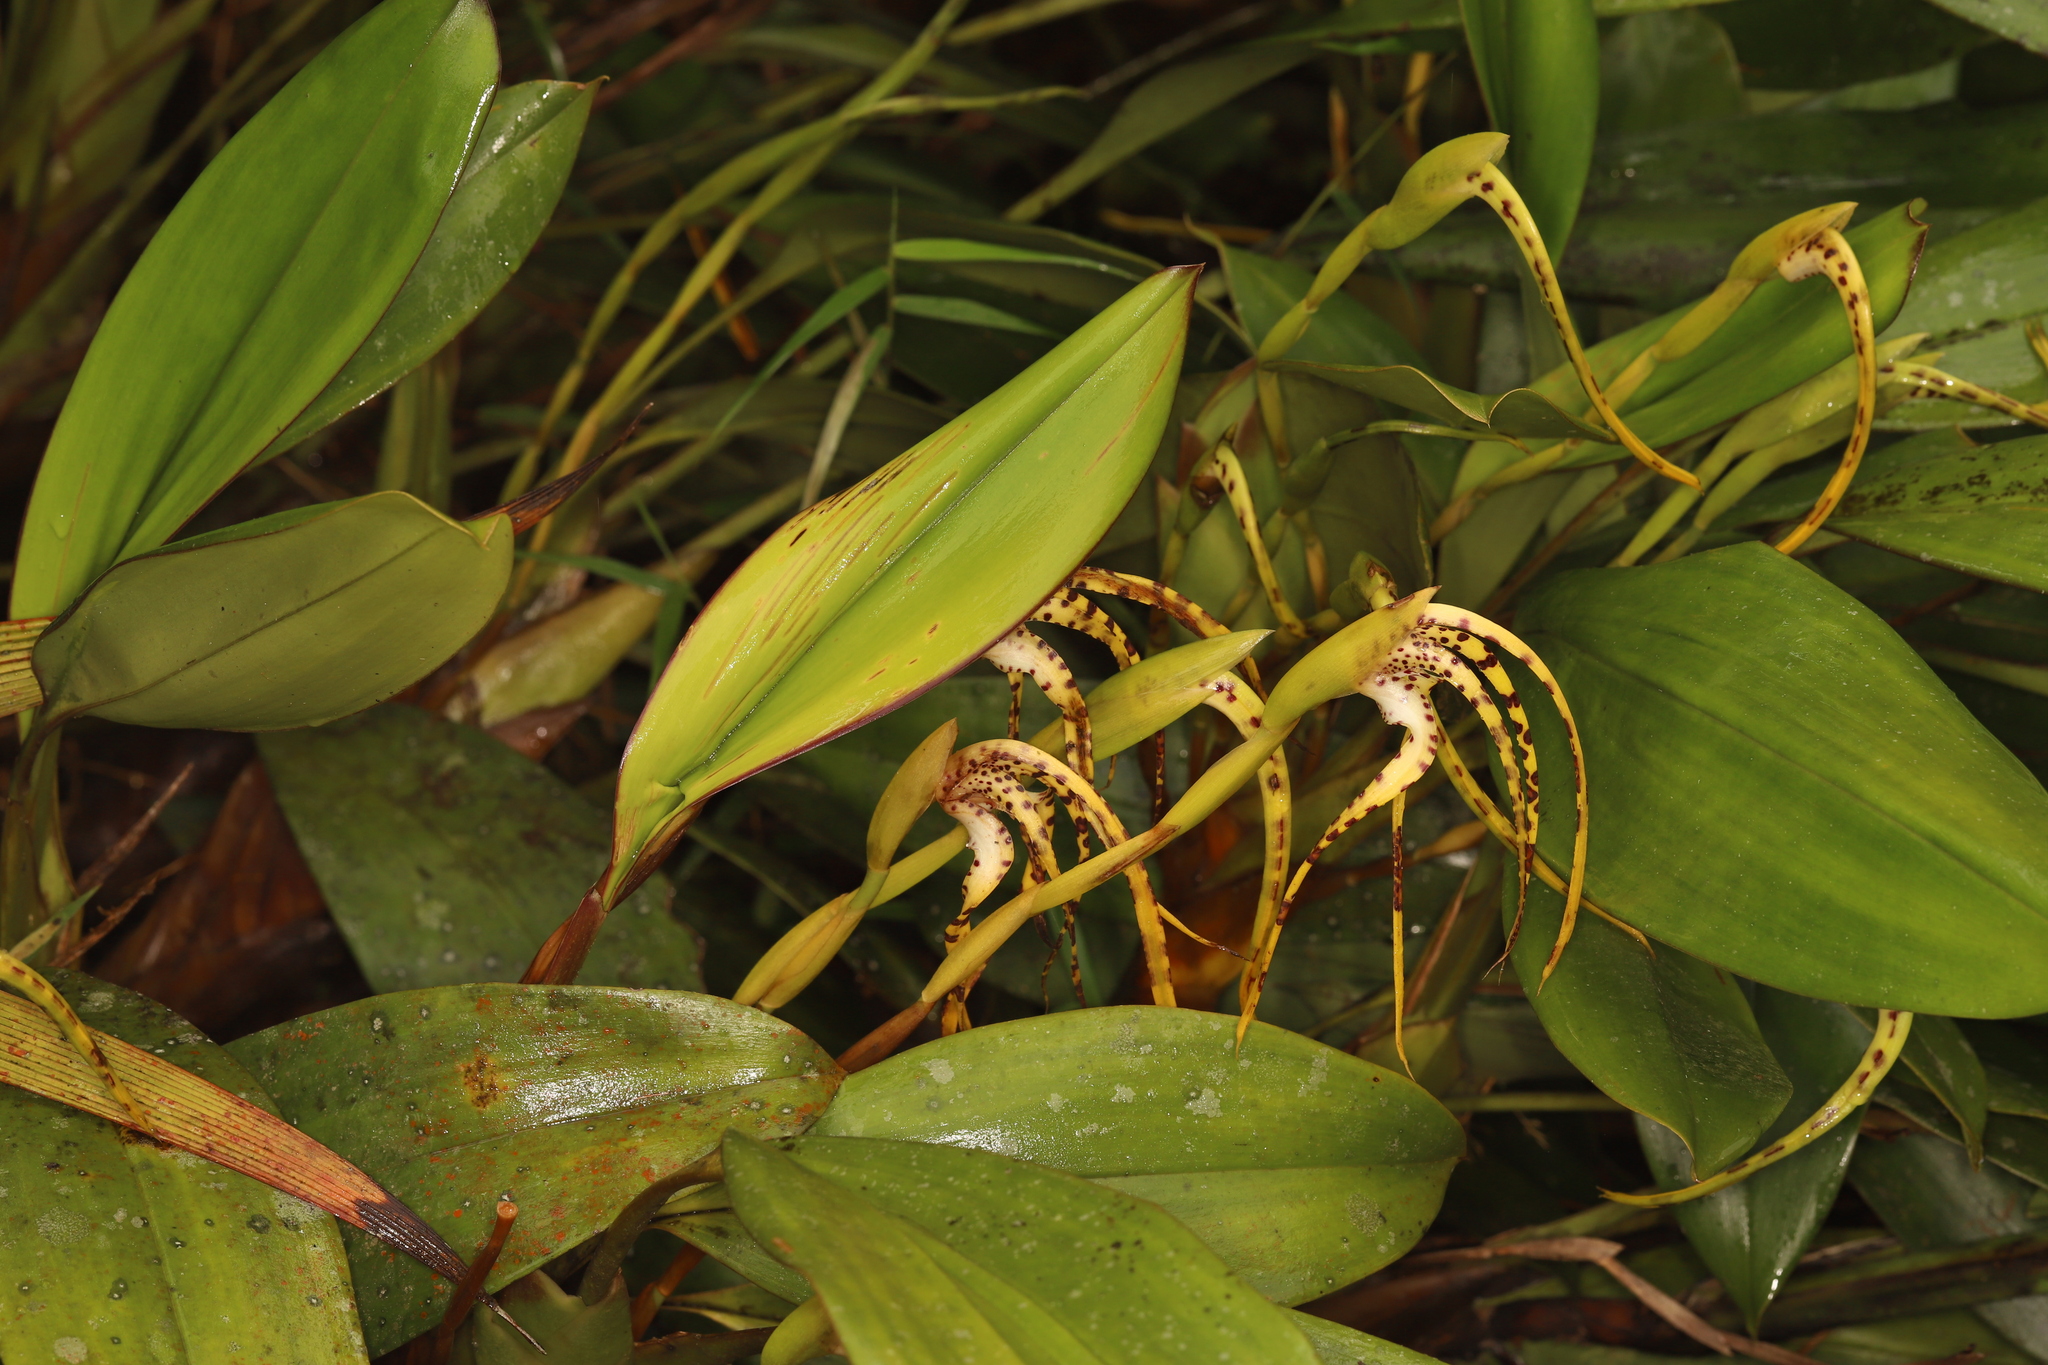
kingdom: Plantae
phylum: Tracheophyta
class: Liliopsida
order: Asparagales
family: Orchidaceae
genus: Maxillaria
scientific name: Maxillaria speciosa
